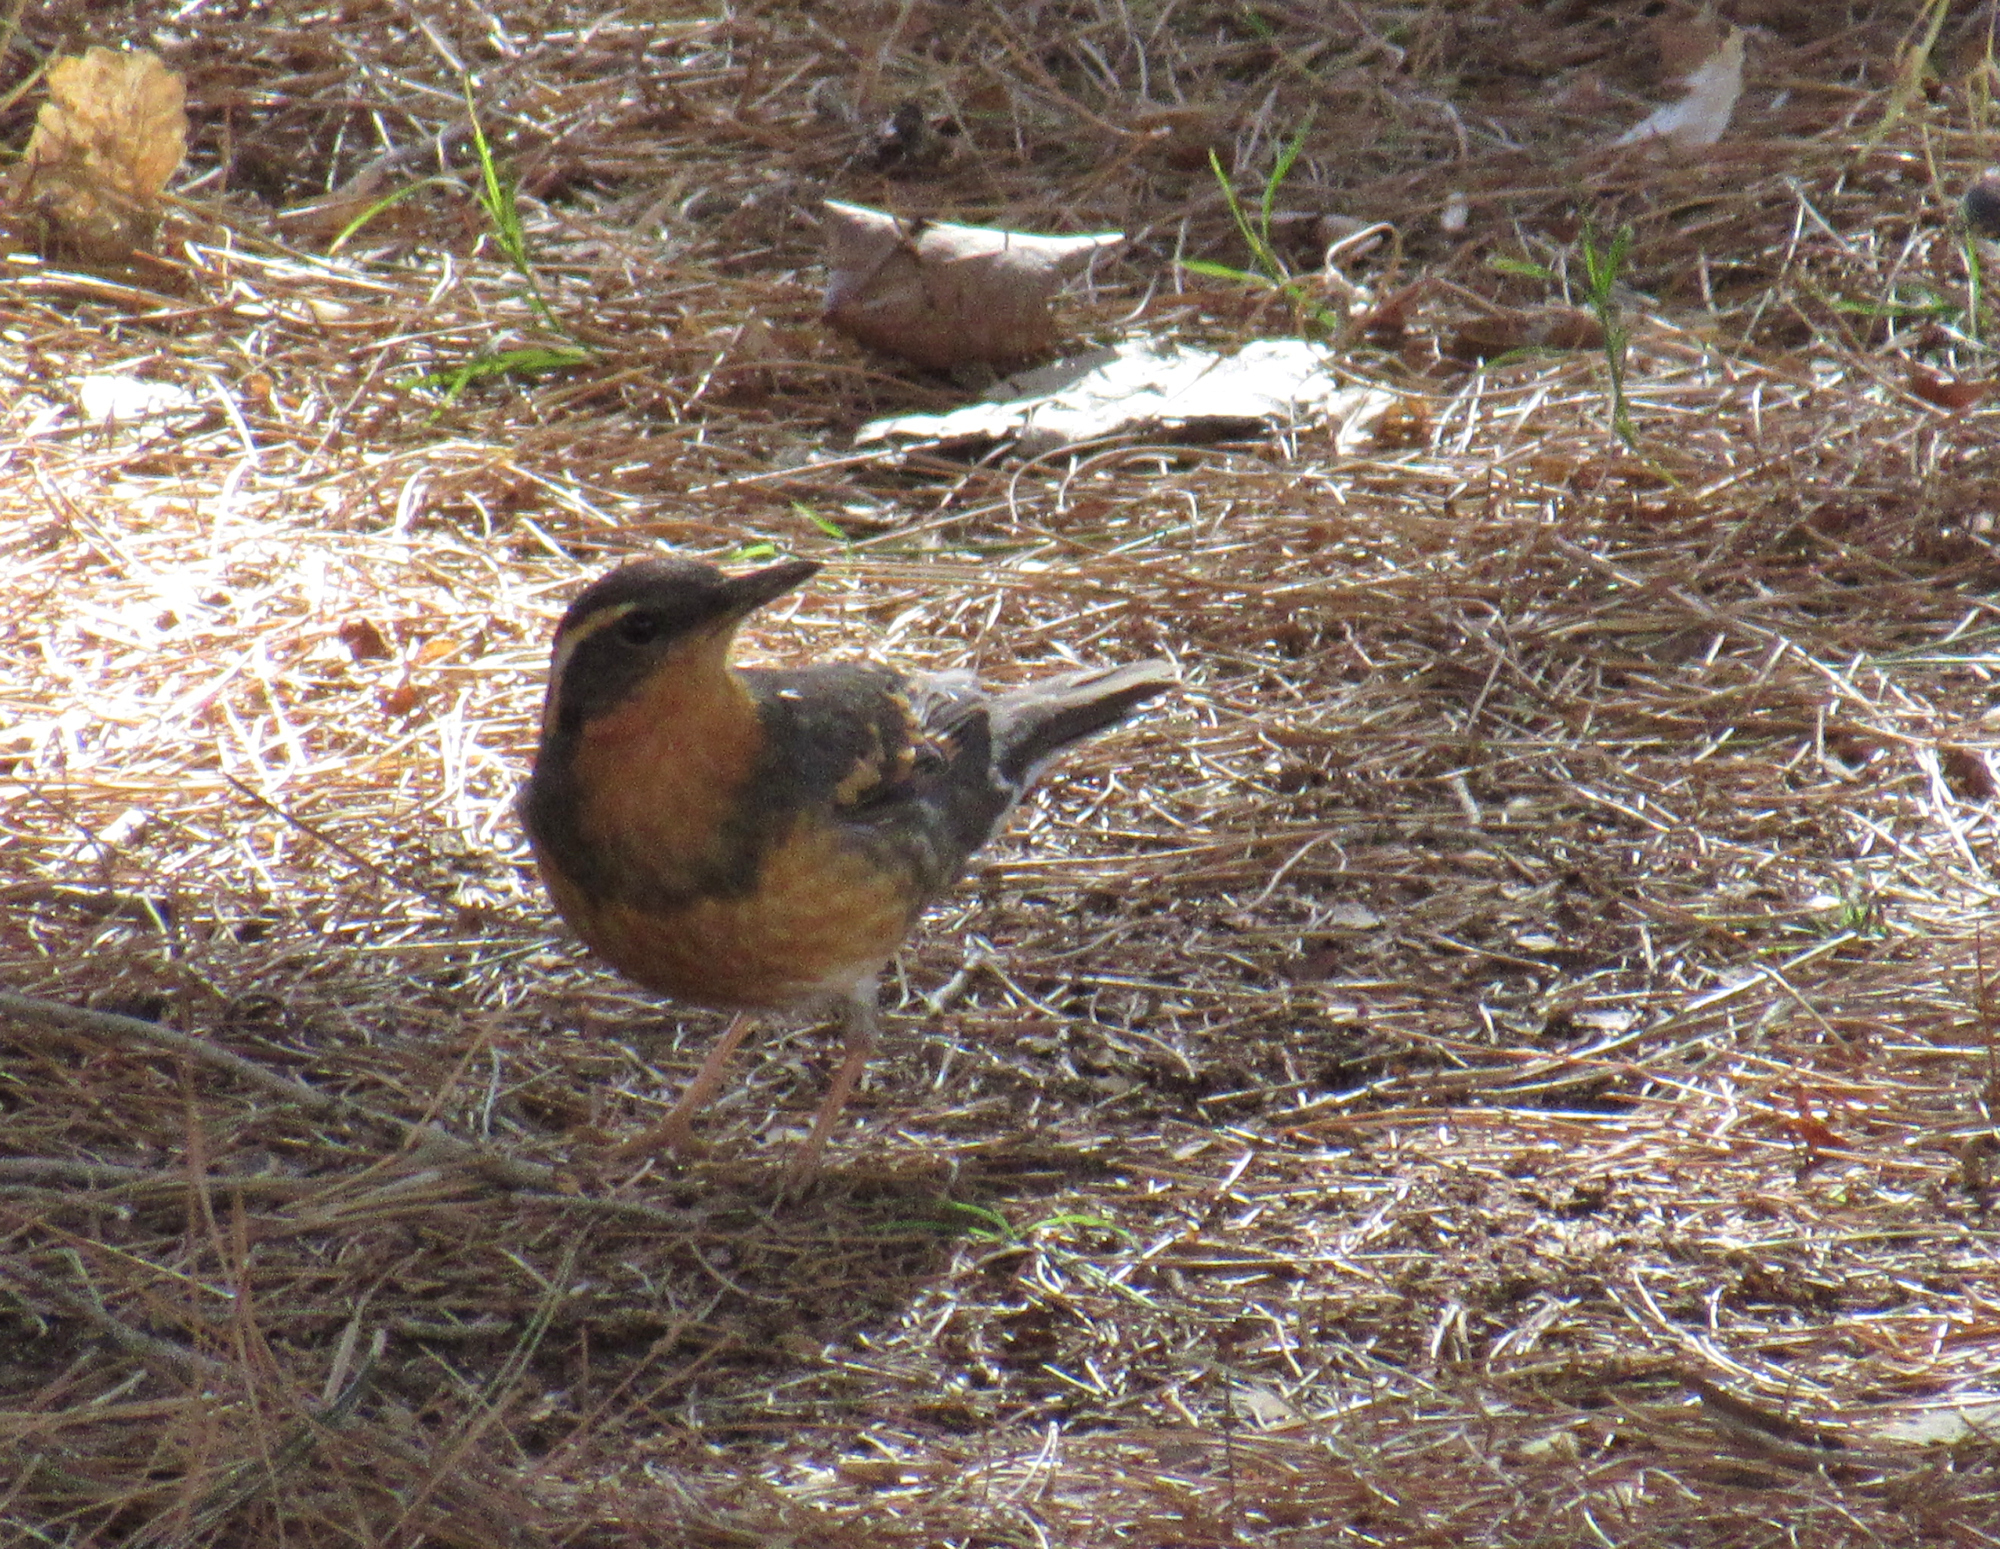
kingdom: Animalia
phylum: Chordata
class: Aves
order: Passeriformes
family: Turdidae
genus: Ixoreus
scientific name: Ixoreus naevius
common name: Varied thrush
